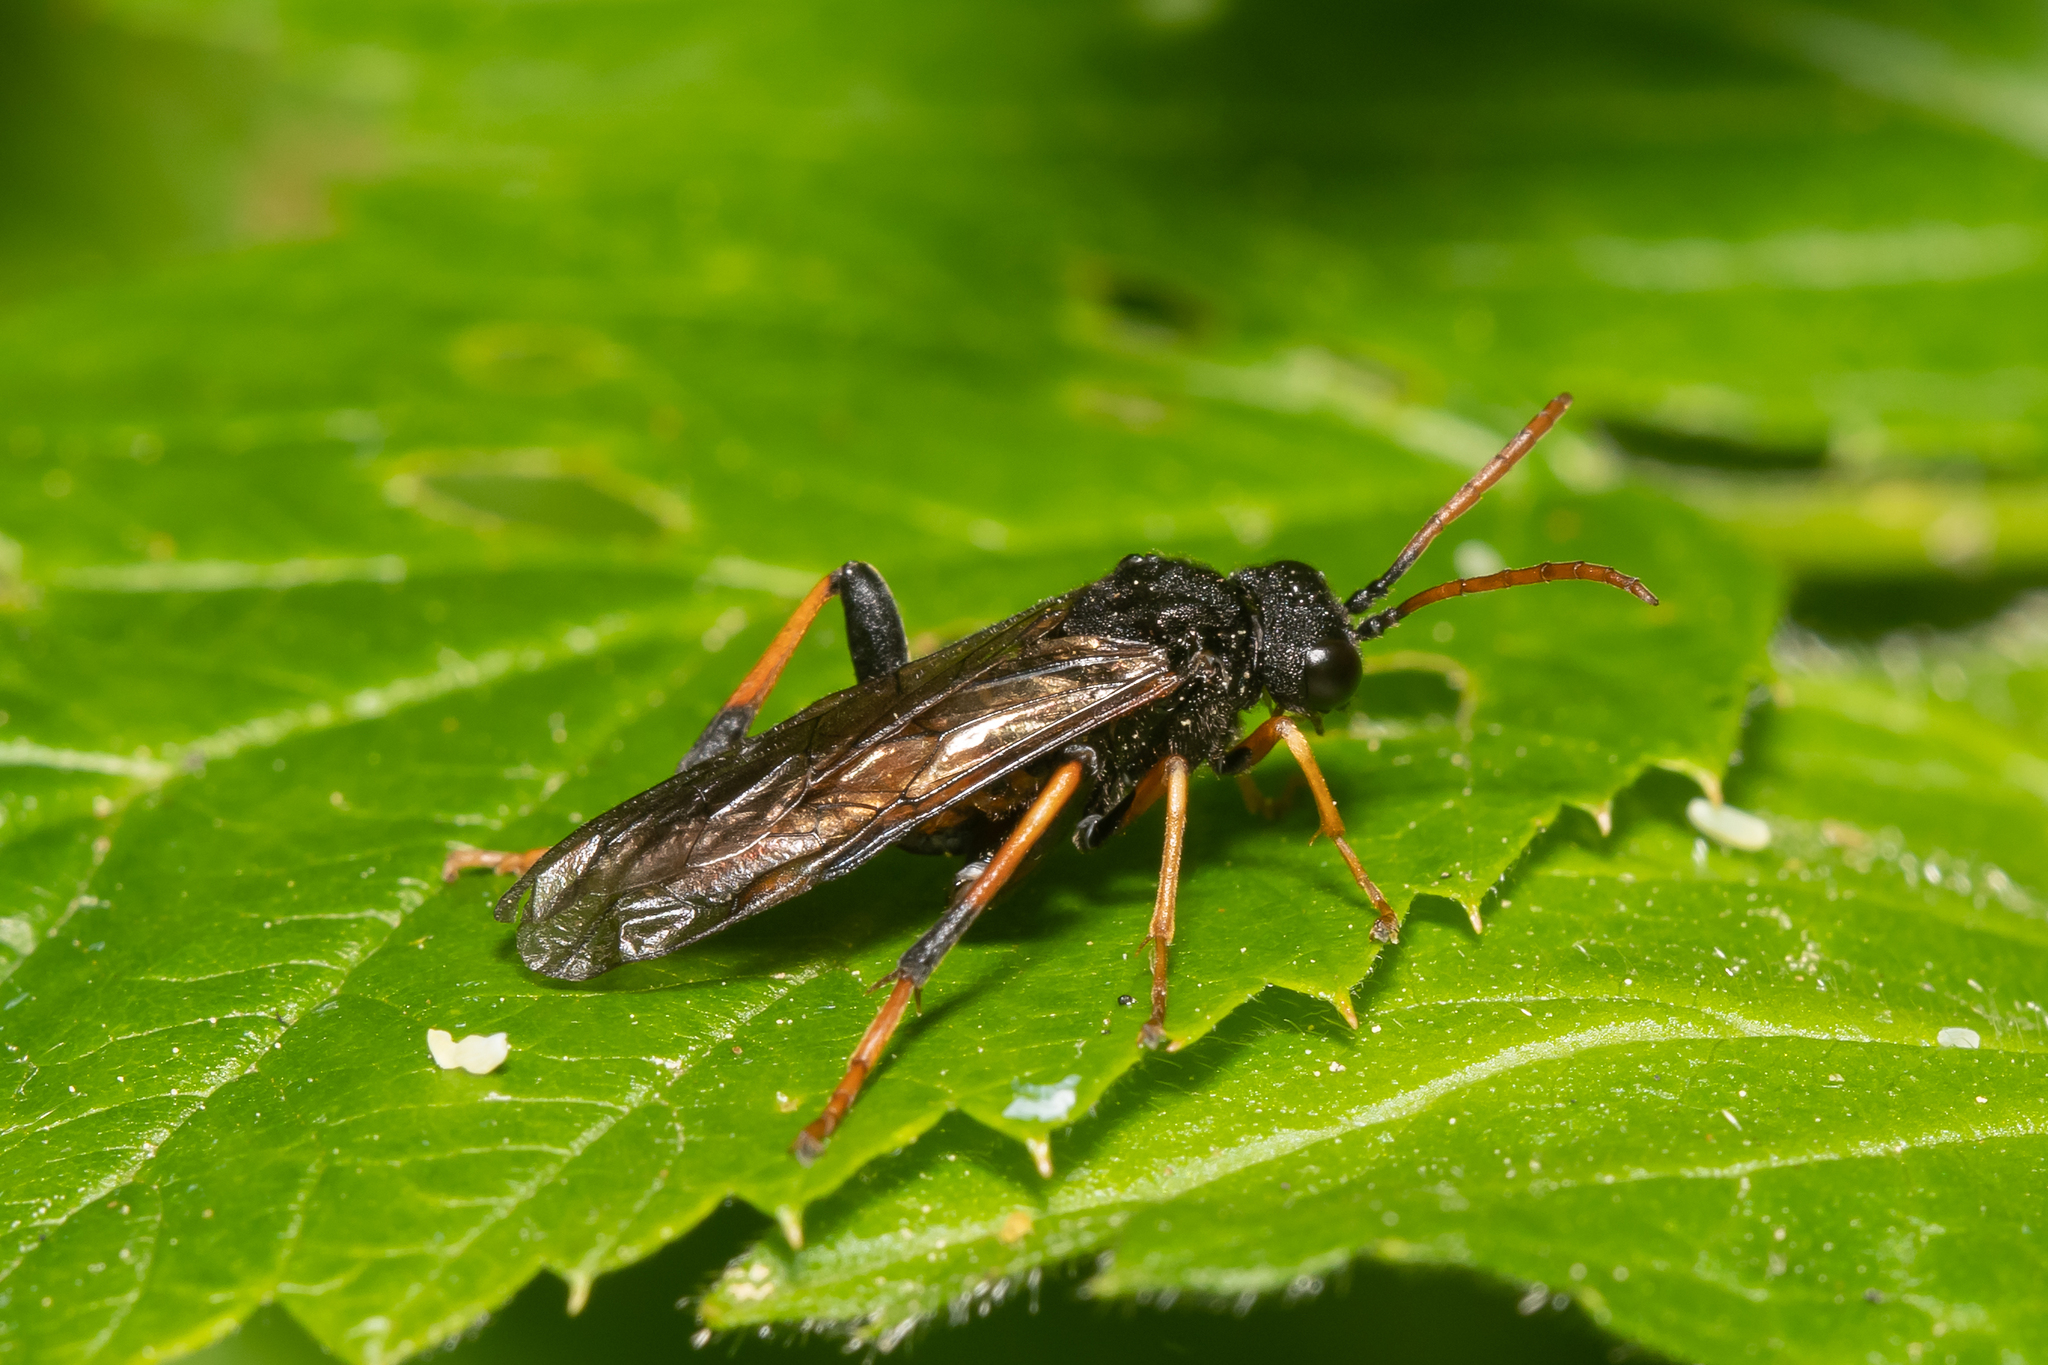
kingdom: Animalia
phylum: Arthropoda
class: Insecta
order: Hymenoptera
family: Tenthredinidae
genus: Siobla
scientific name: Siobla sturmii
